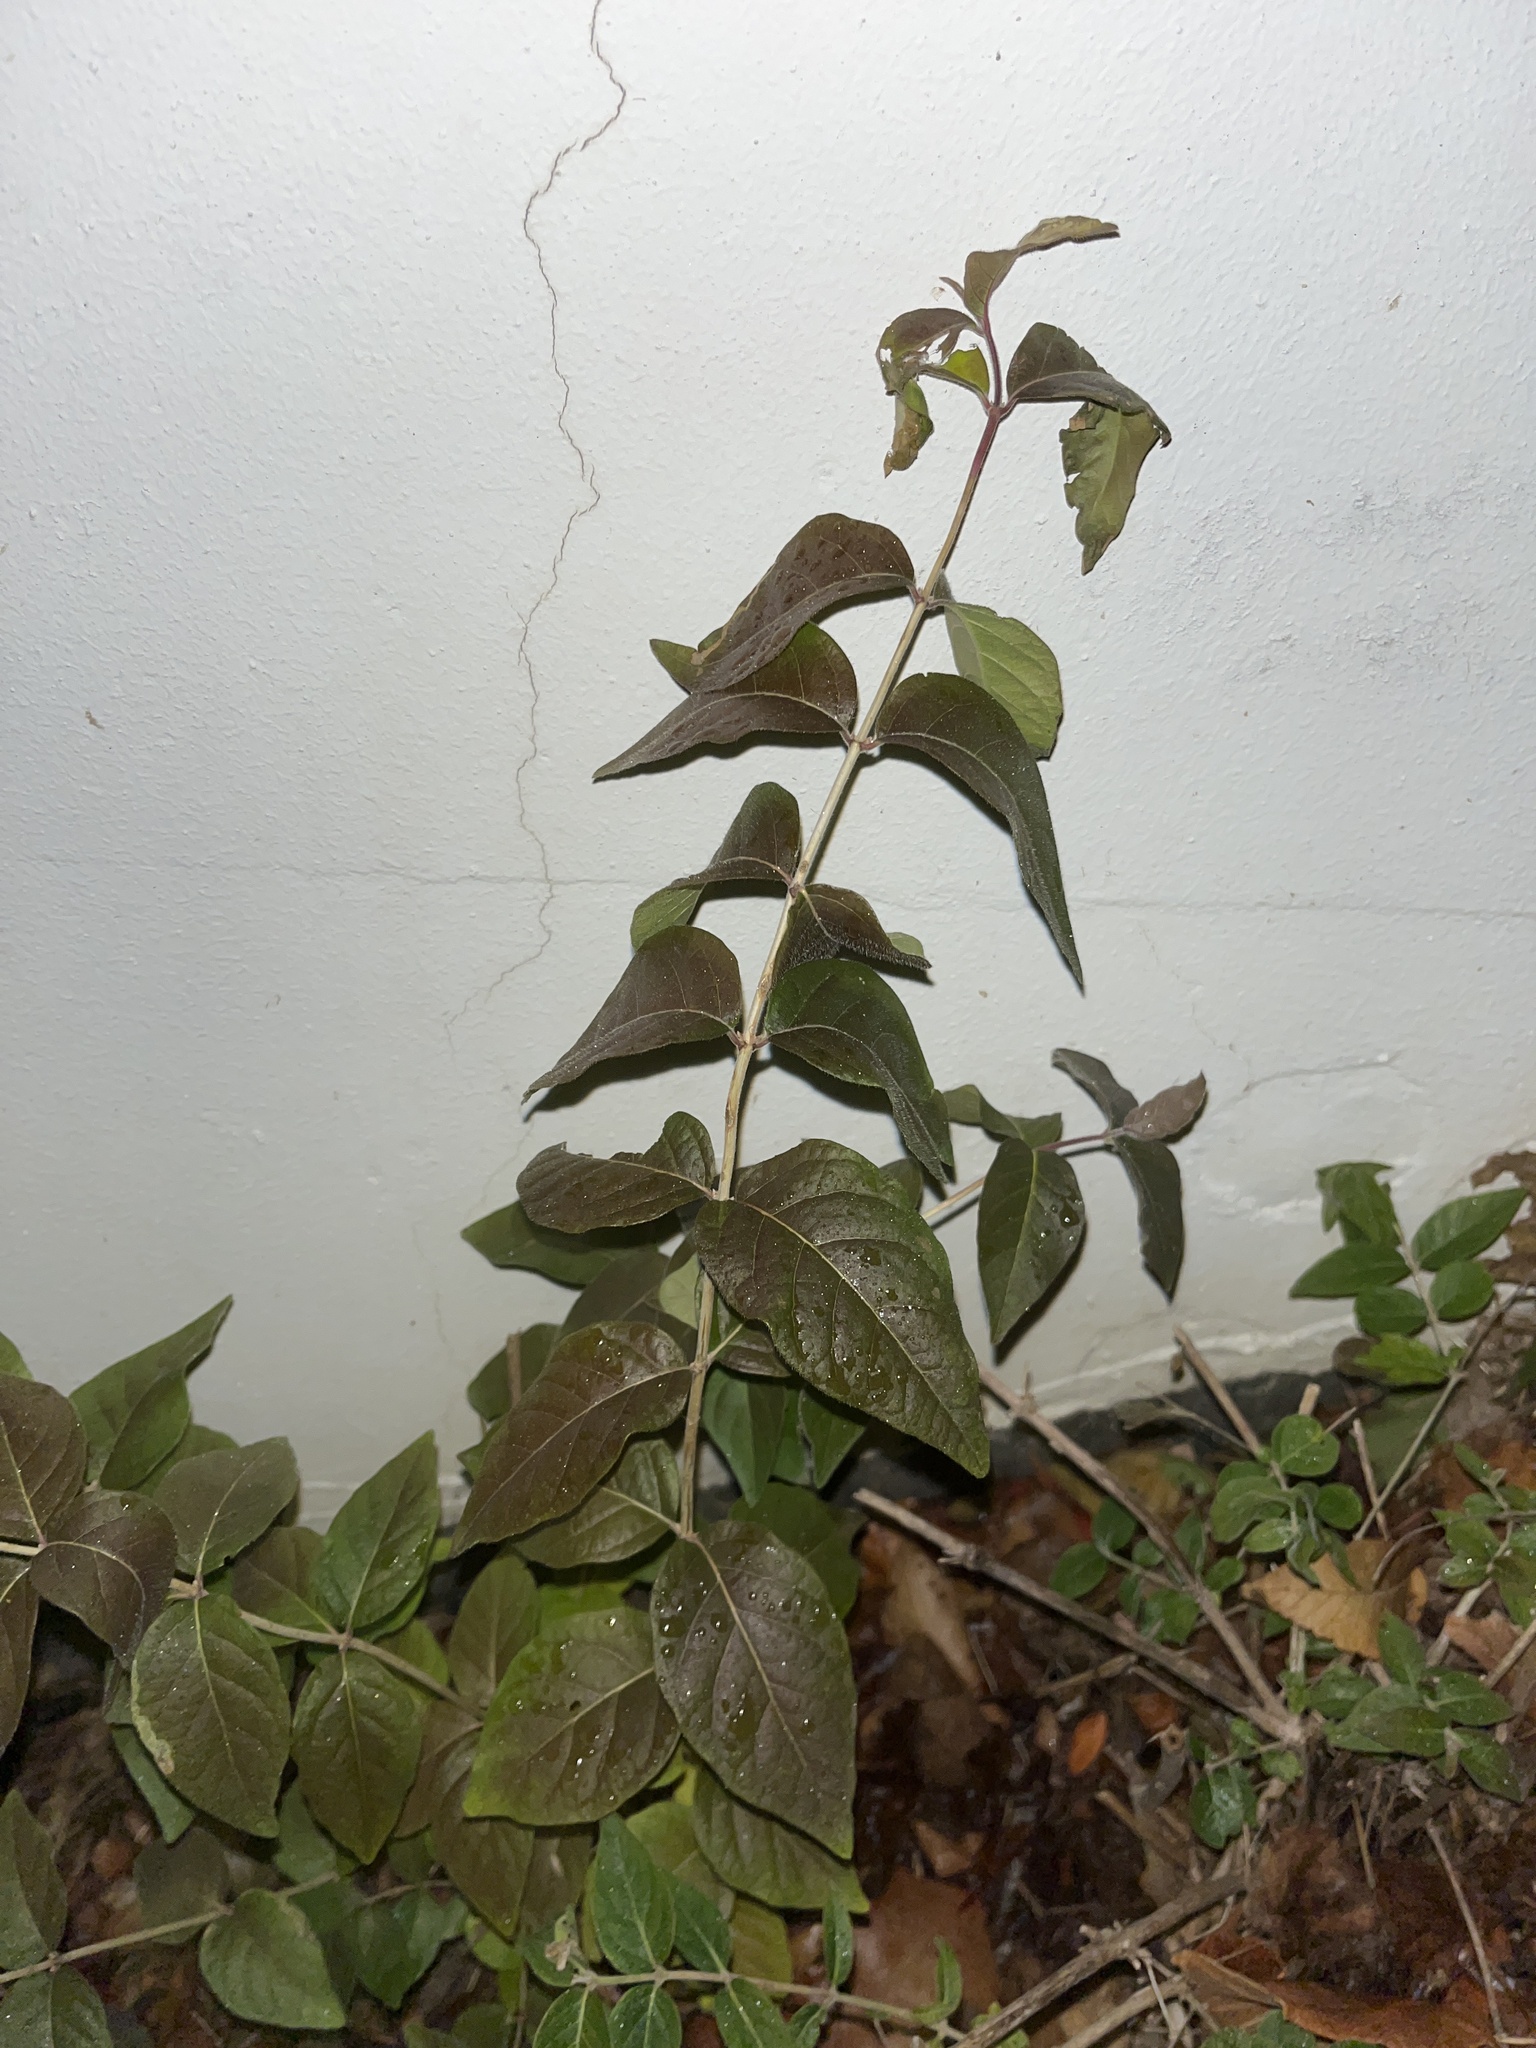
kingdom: Plantae
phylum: Tracheophyta
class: Magnoliopsida
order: Dipsacales
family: Caprifoliaceae
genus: Lonicera
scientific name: Lonicera maackii
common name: Amur honeysuckle
